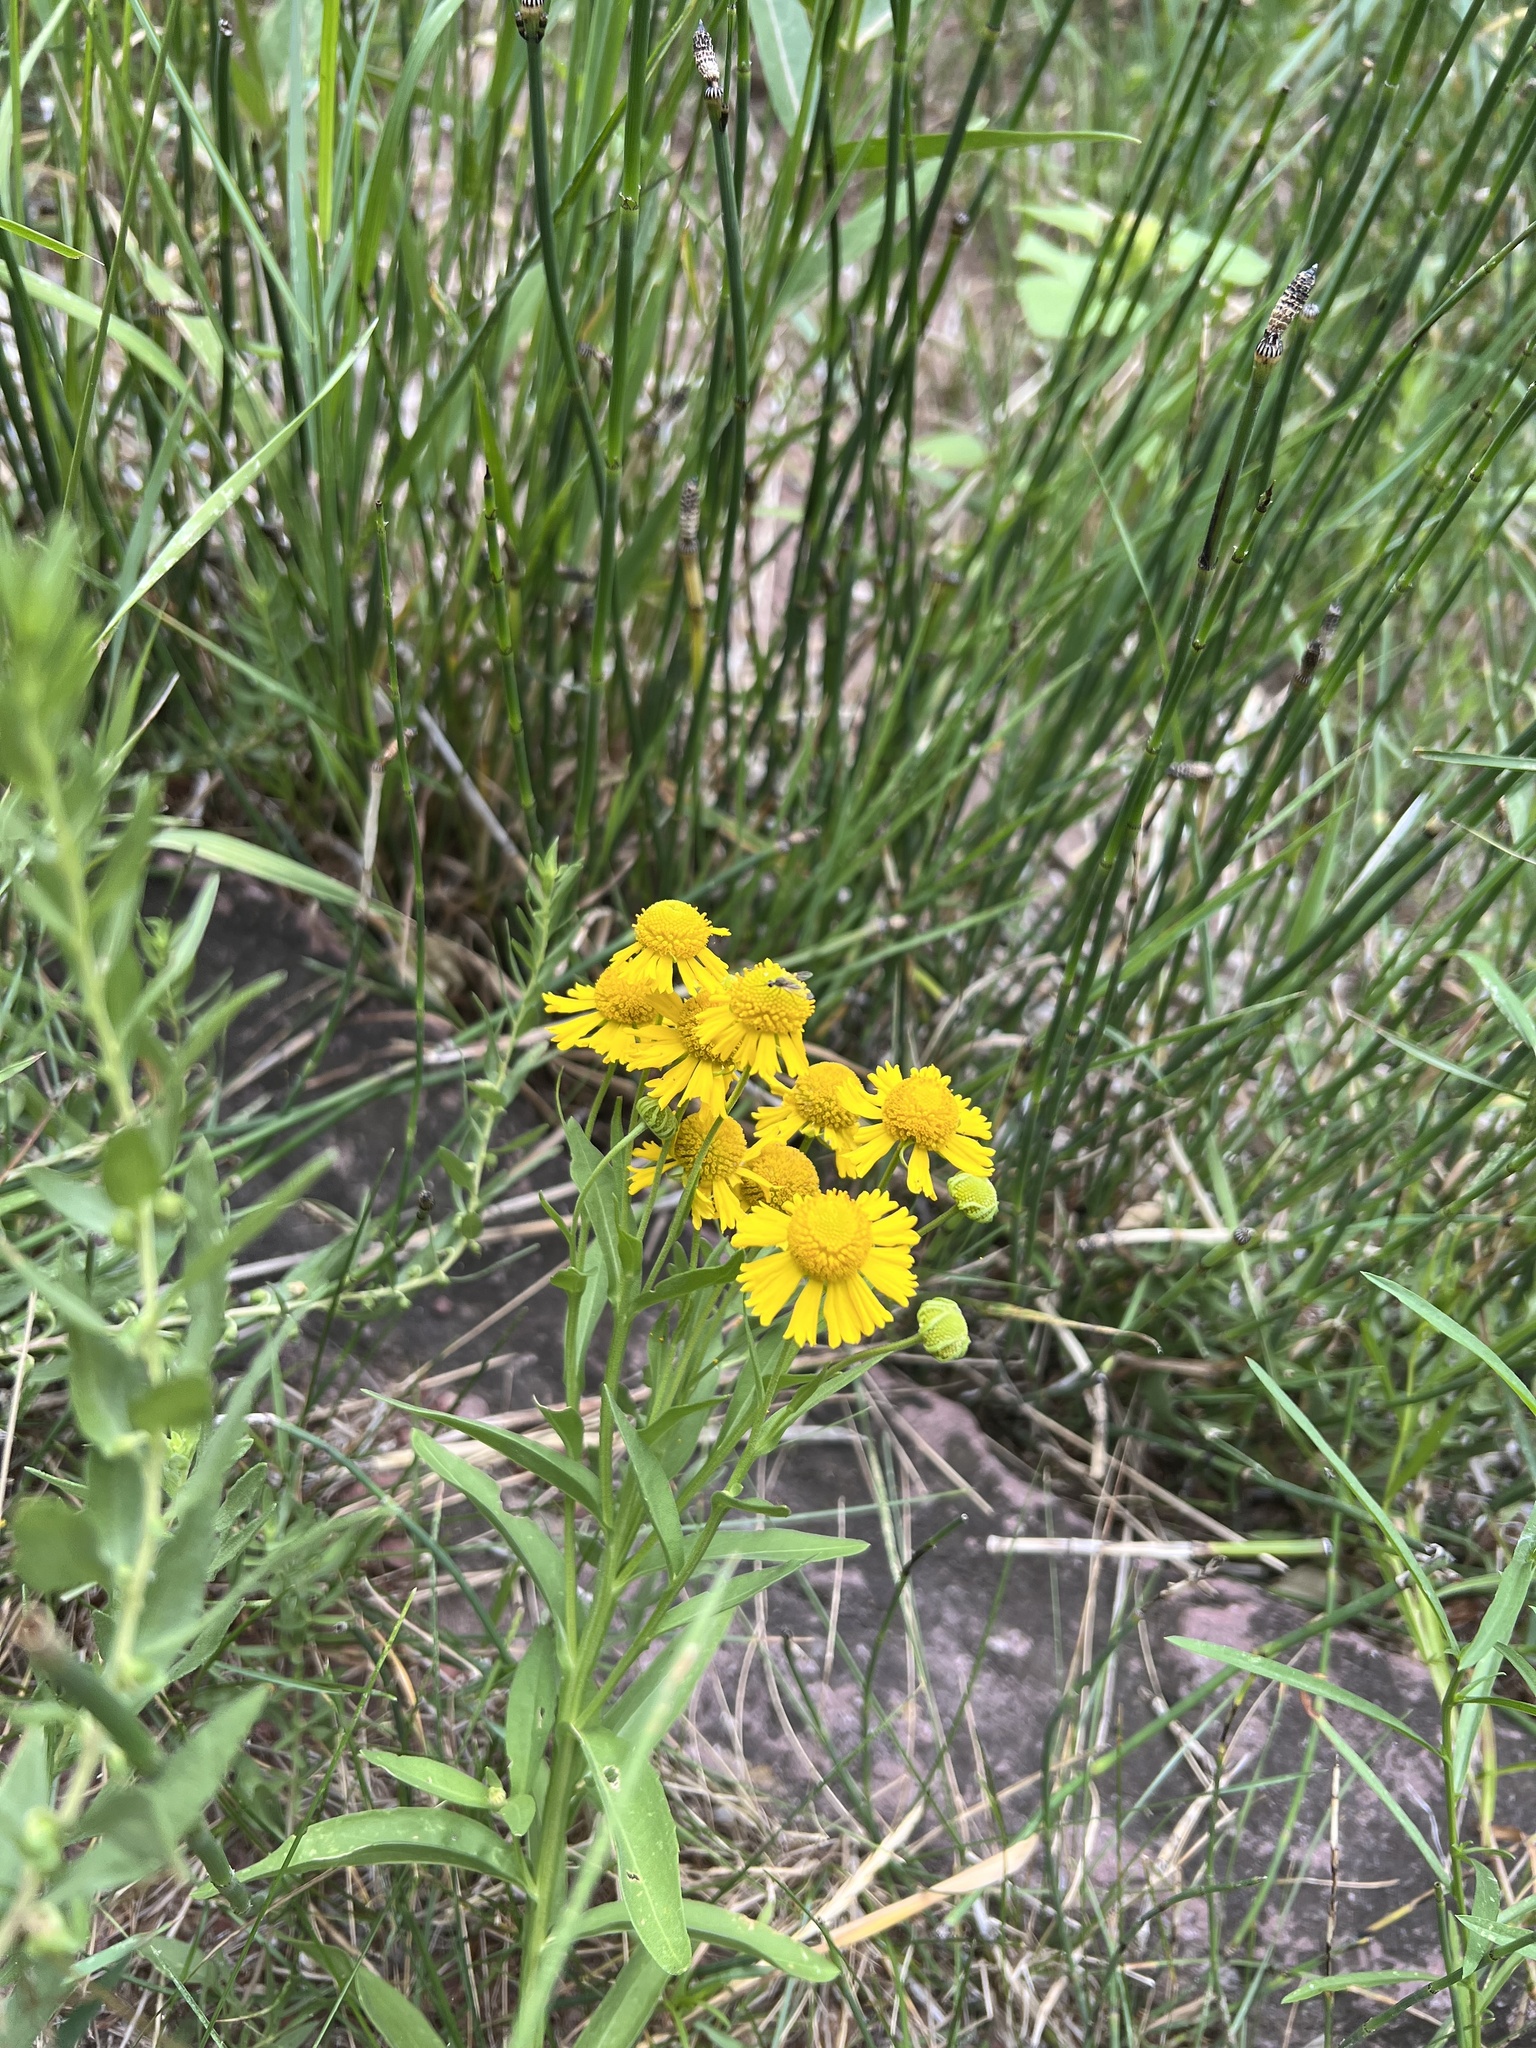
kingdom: Plantae
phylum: Tracheophyta
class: Magnoliopsida
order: Asterales
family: Asteraceae
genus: Helenium
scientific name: Helenium autumnale
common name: Sneezeweed
